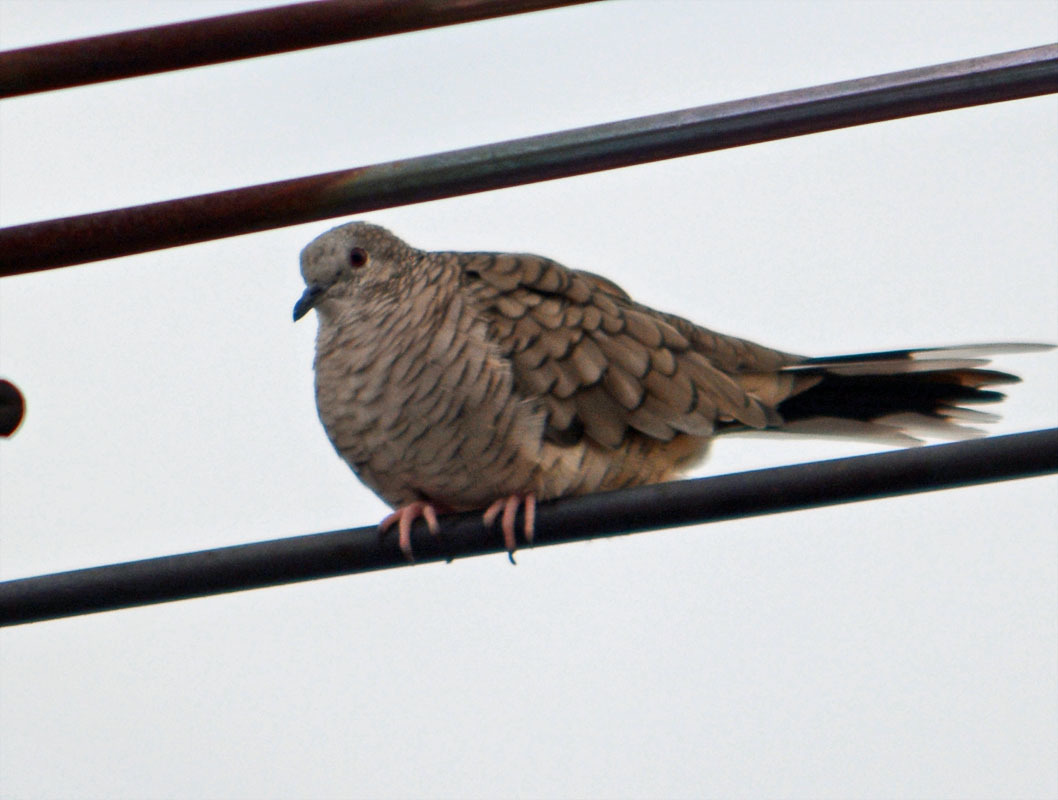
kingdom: Animalia
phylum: Chordata
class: Aves
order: Columbiformes
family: Columbidae
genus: Columbina
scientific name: Columbina inca
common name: Inca dove
